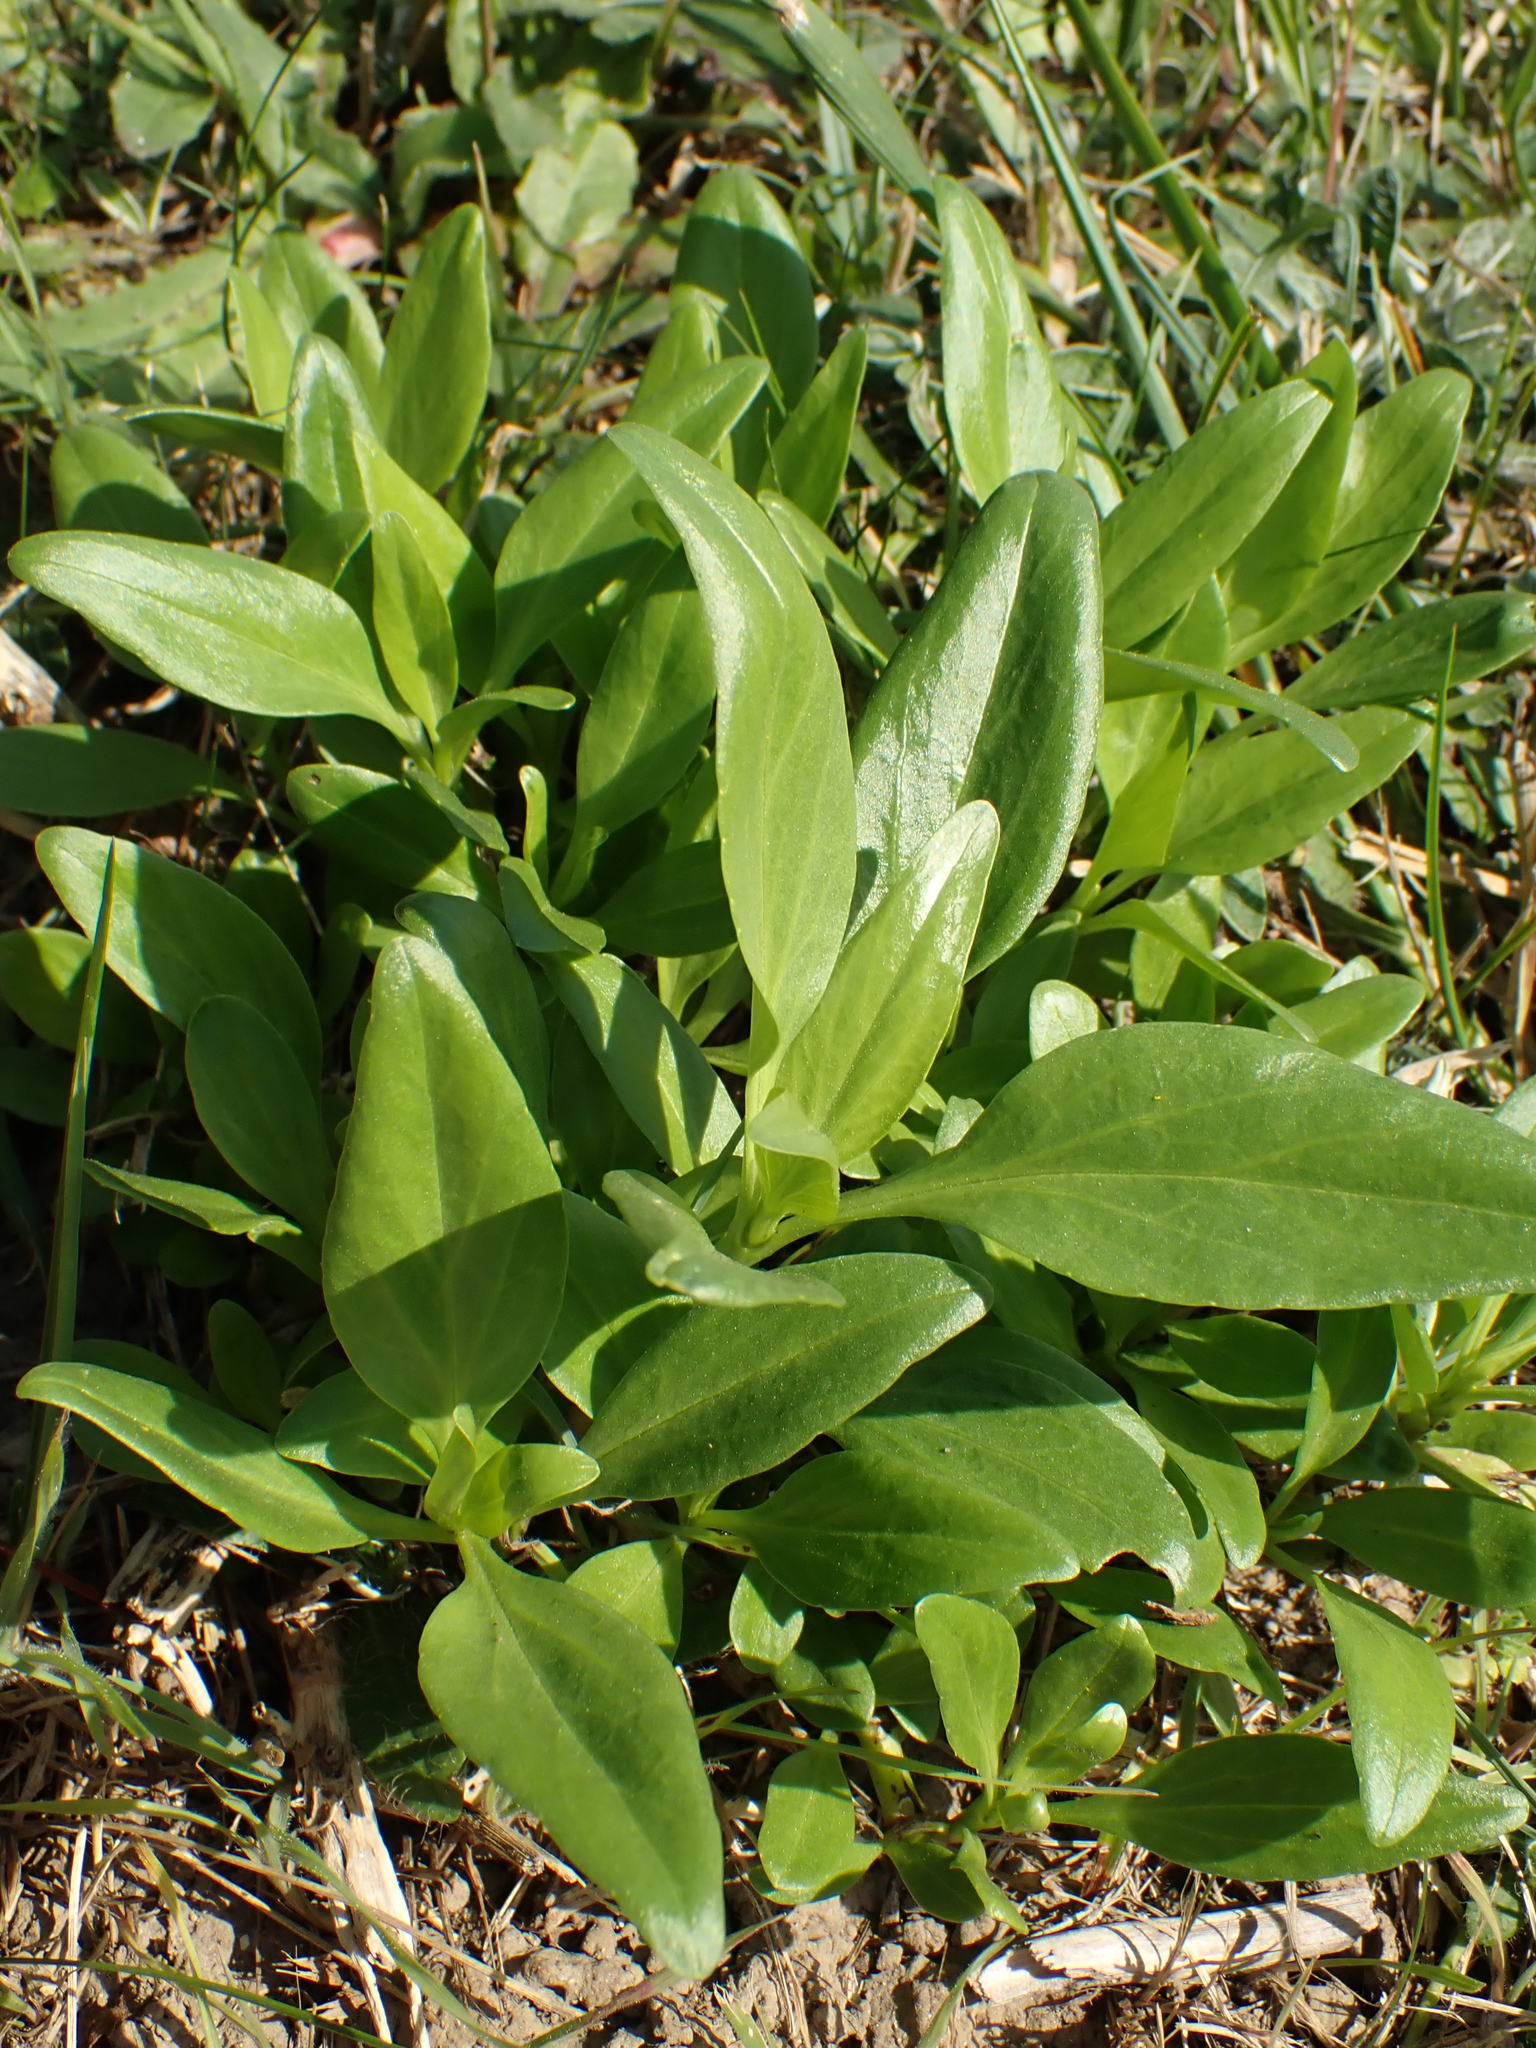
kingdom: Plantae
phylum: Tracheophyta
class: Magnoliopsida
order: Dipsacales
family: Caprifoliaceae
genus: Centranthus
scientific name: Centranthus ruber
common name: Red valerian
